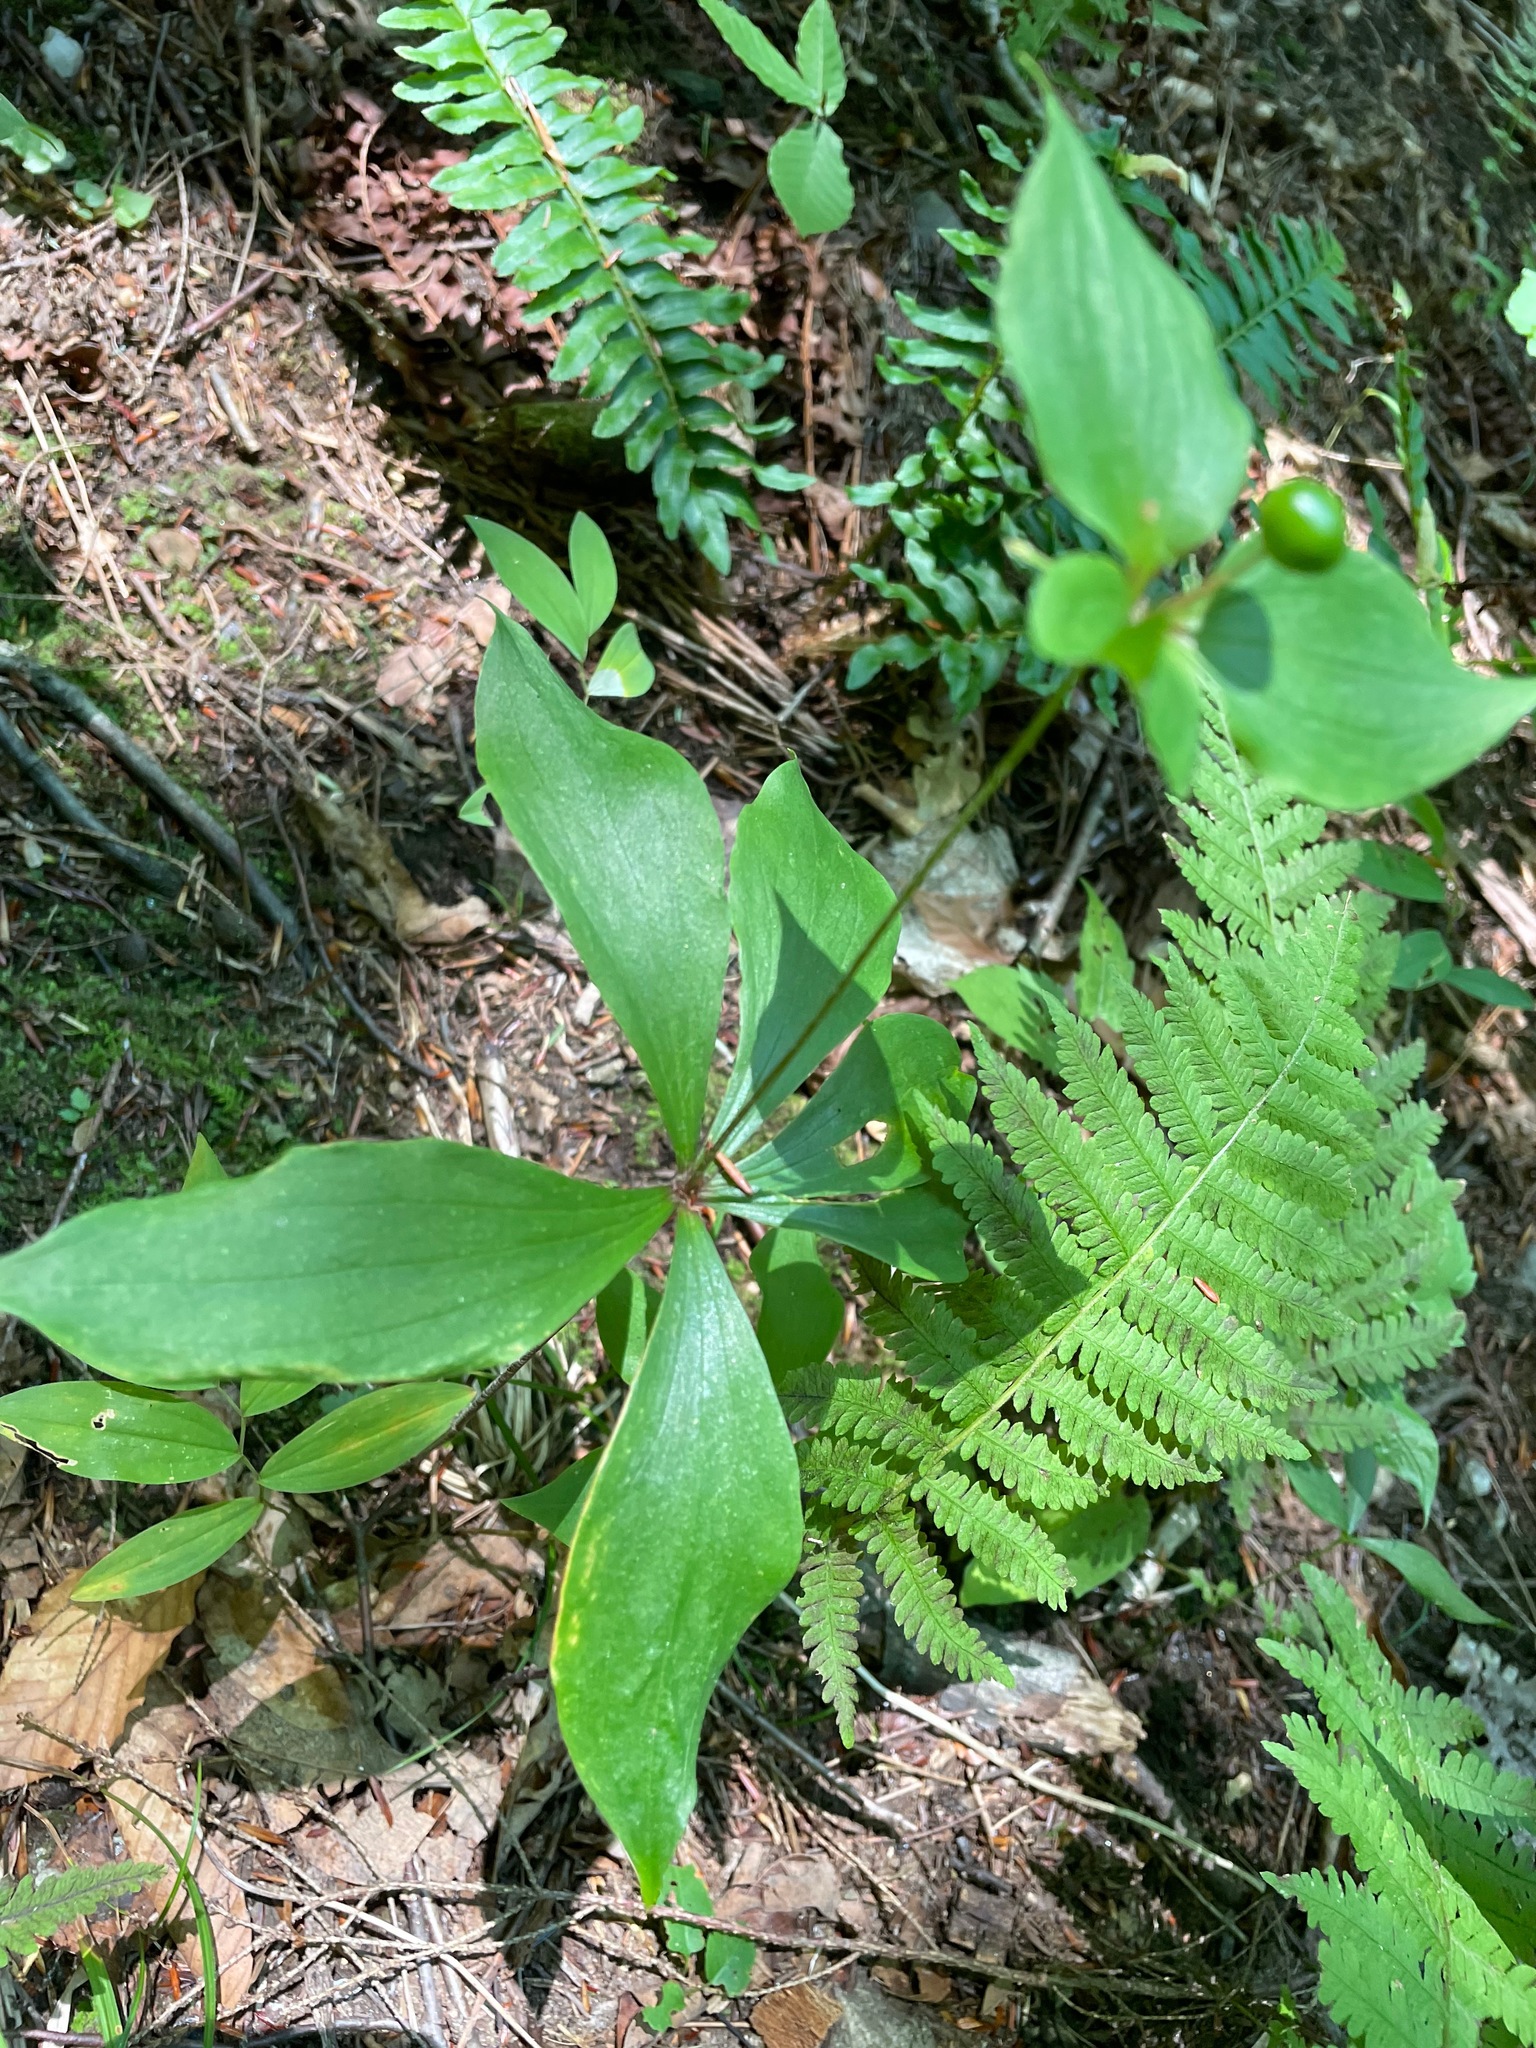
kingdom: Plantae
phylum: Tracheophyta
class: Liliopsida
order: Liliales
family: Liliaceae
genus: Medeola
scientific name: Medeola virginiana
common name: Indian cucumber-root
